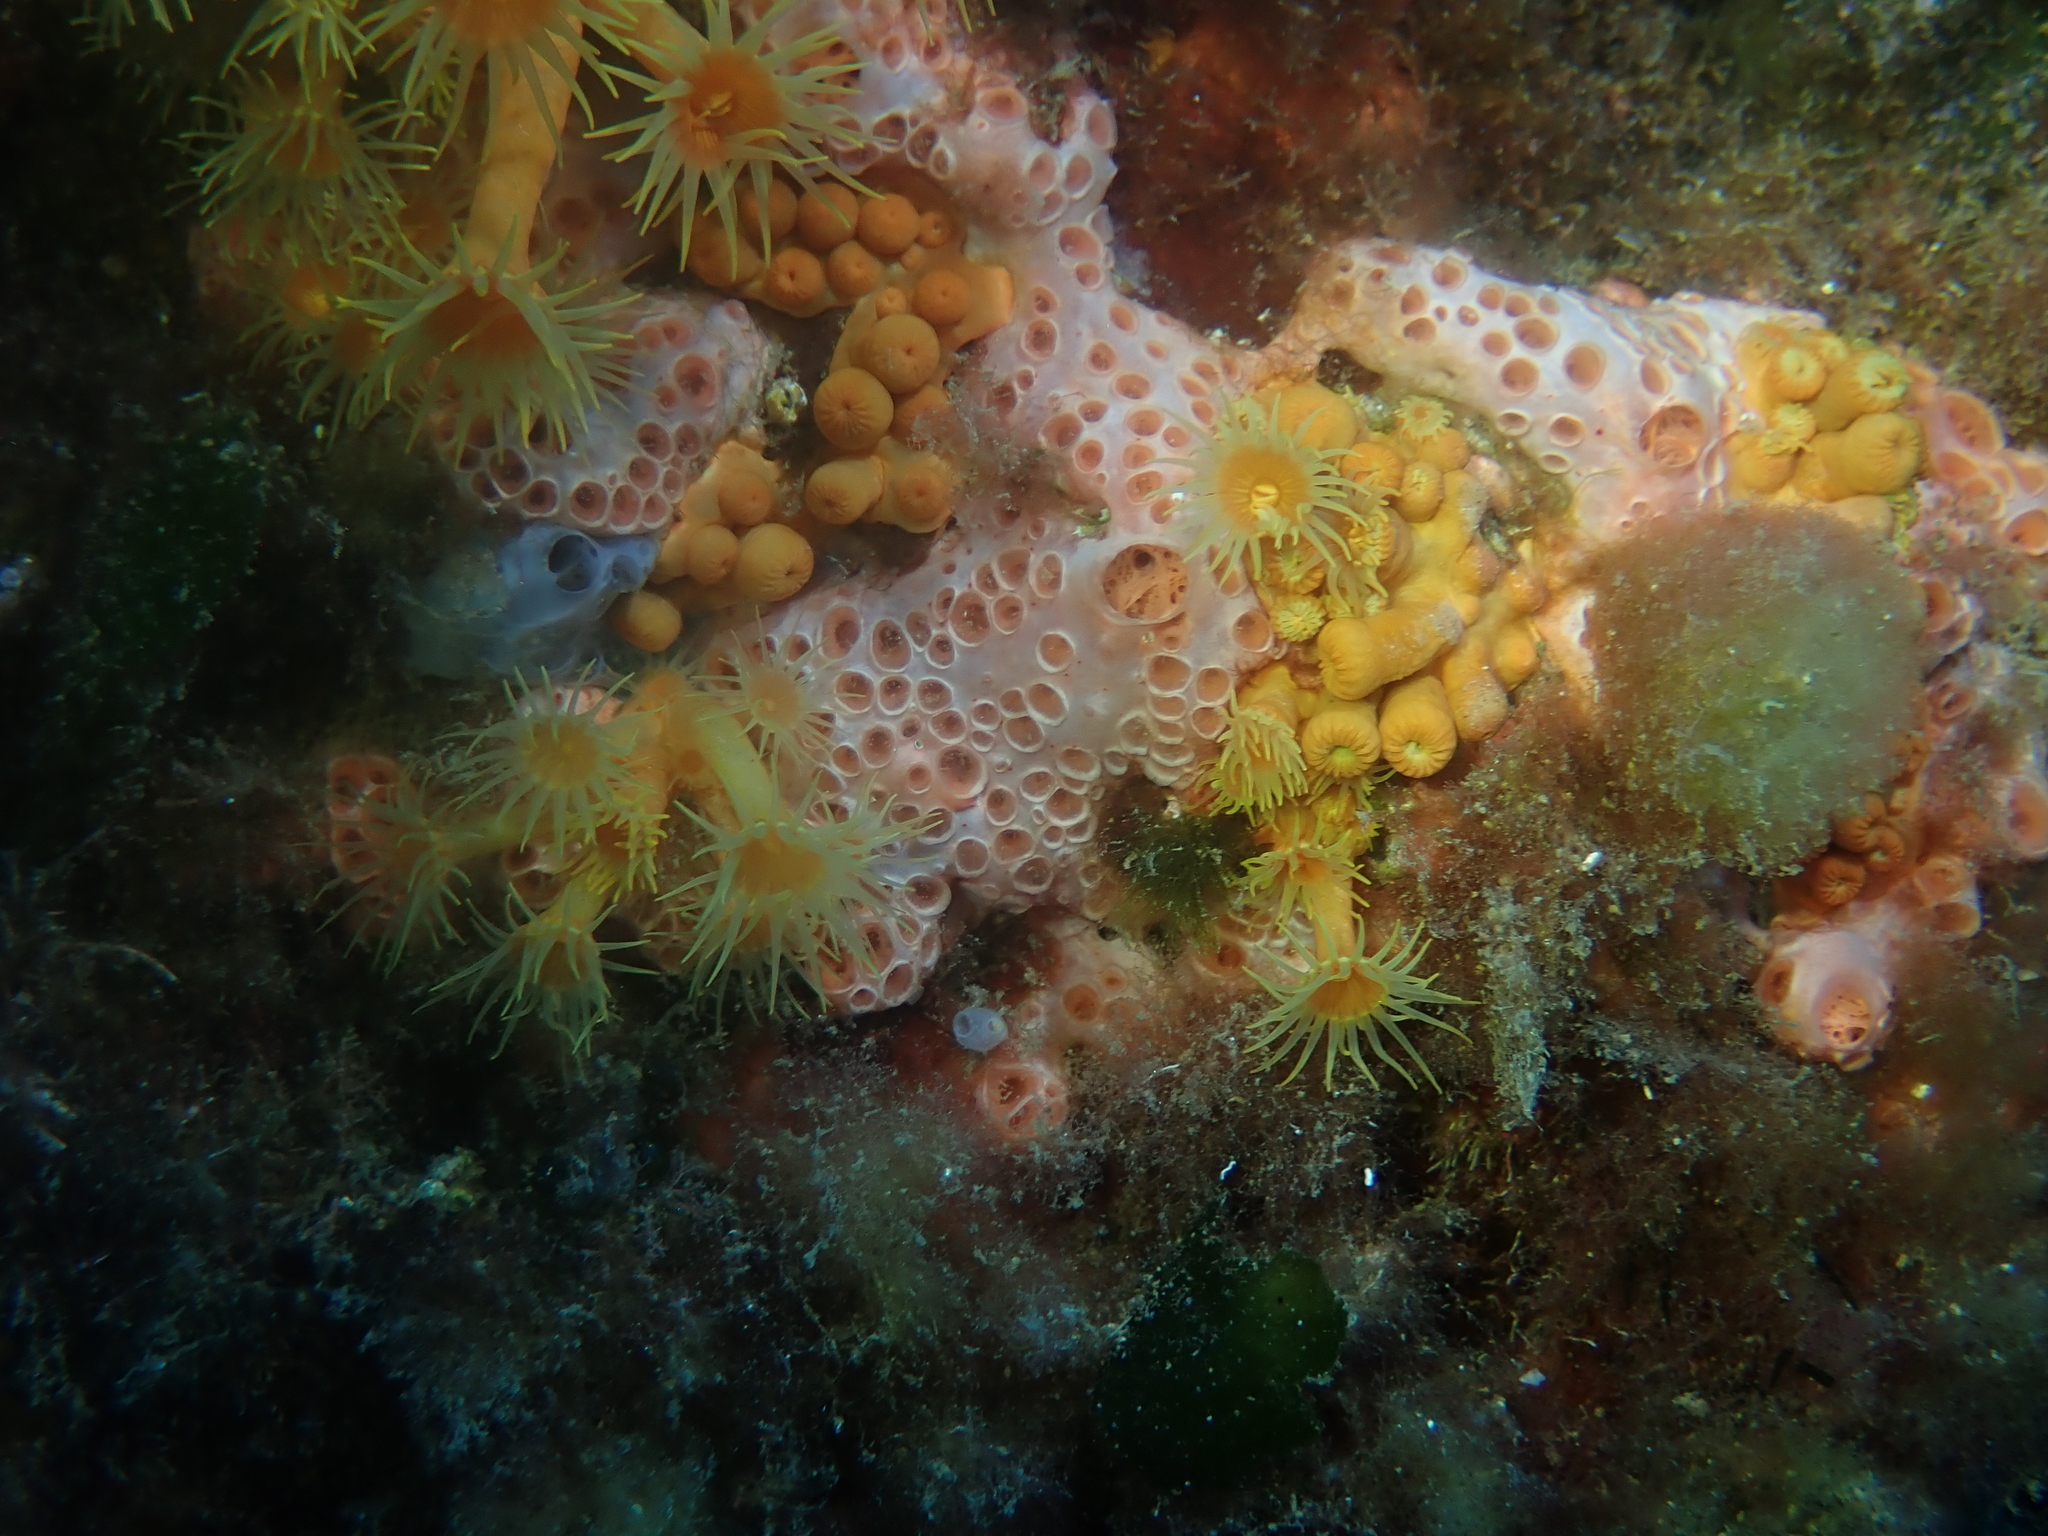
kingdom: Animalia
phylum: Porifera
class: Demospongiae
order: Poecilosclerida
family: Hymedesmiidae
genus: Hemimycale
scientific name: Hemimycale columella
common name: Crater sponge
